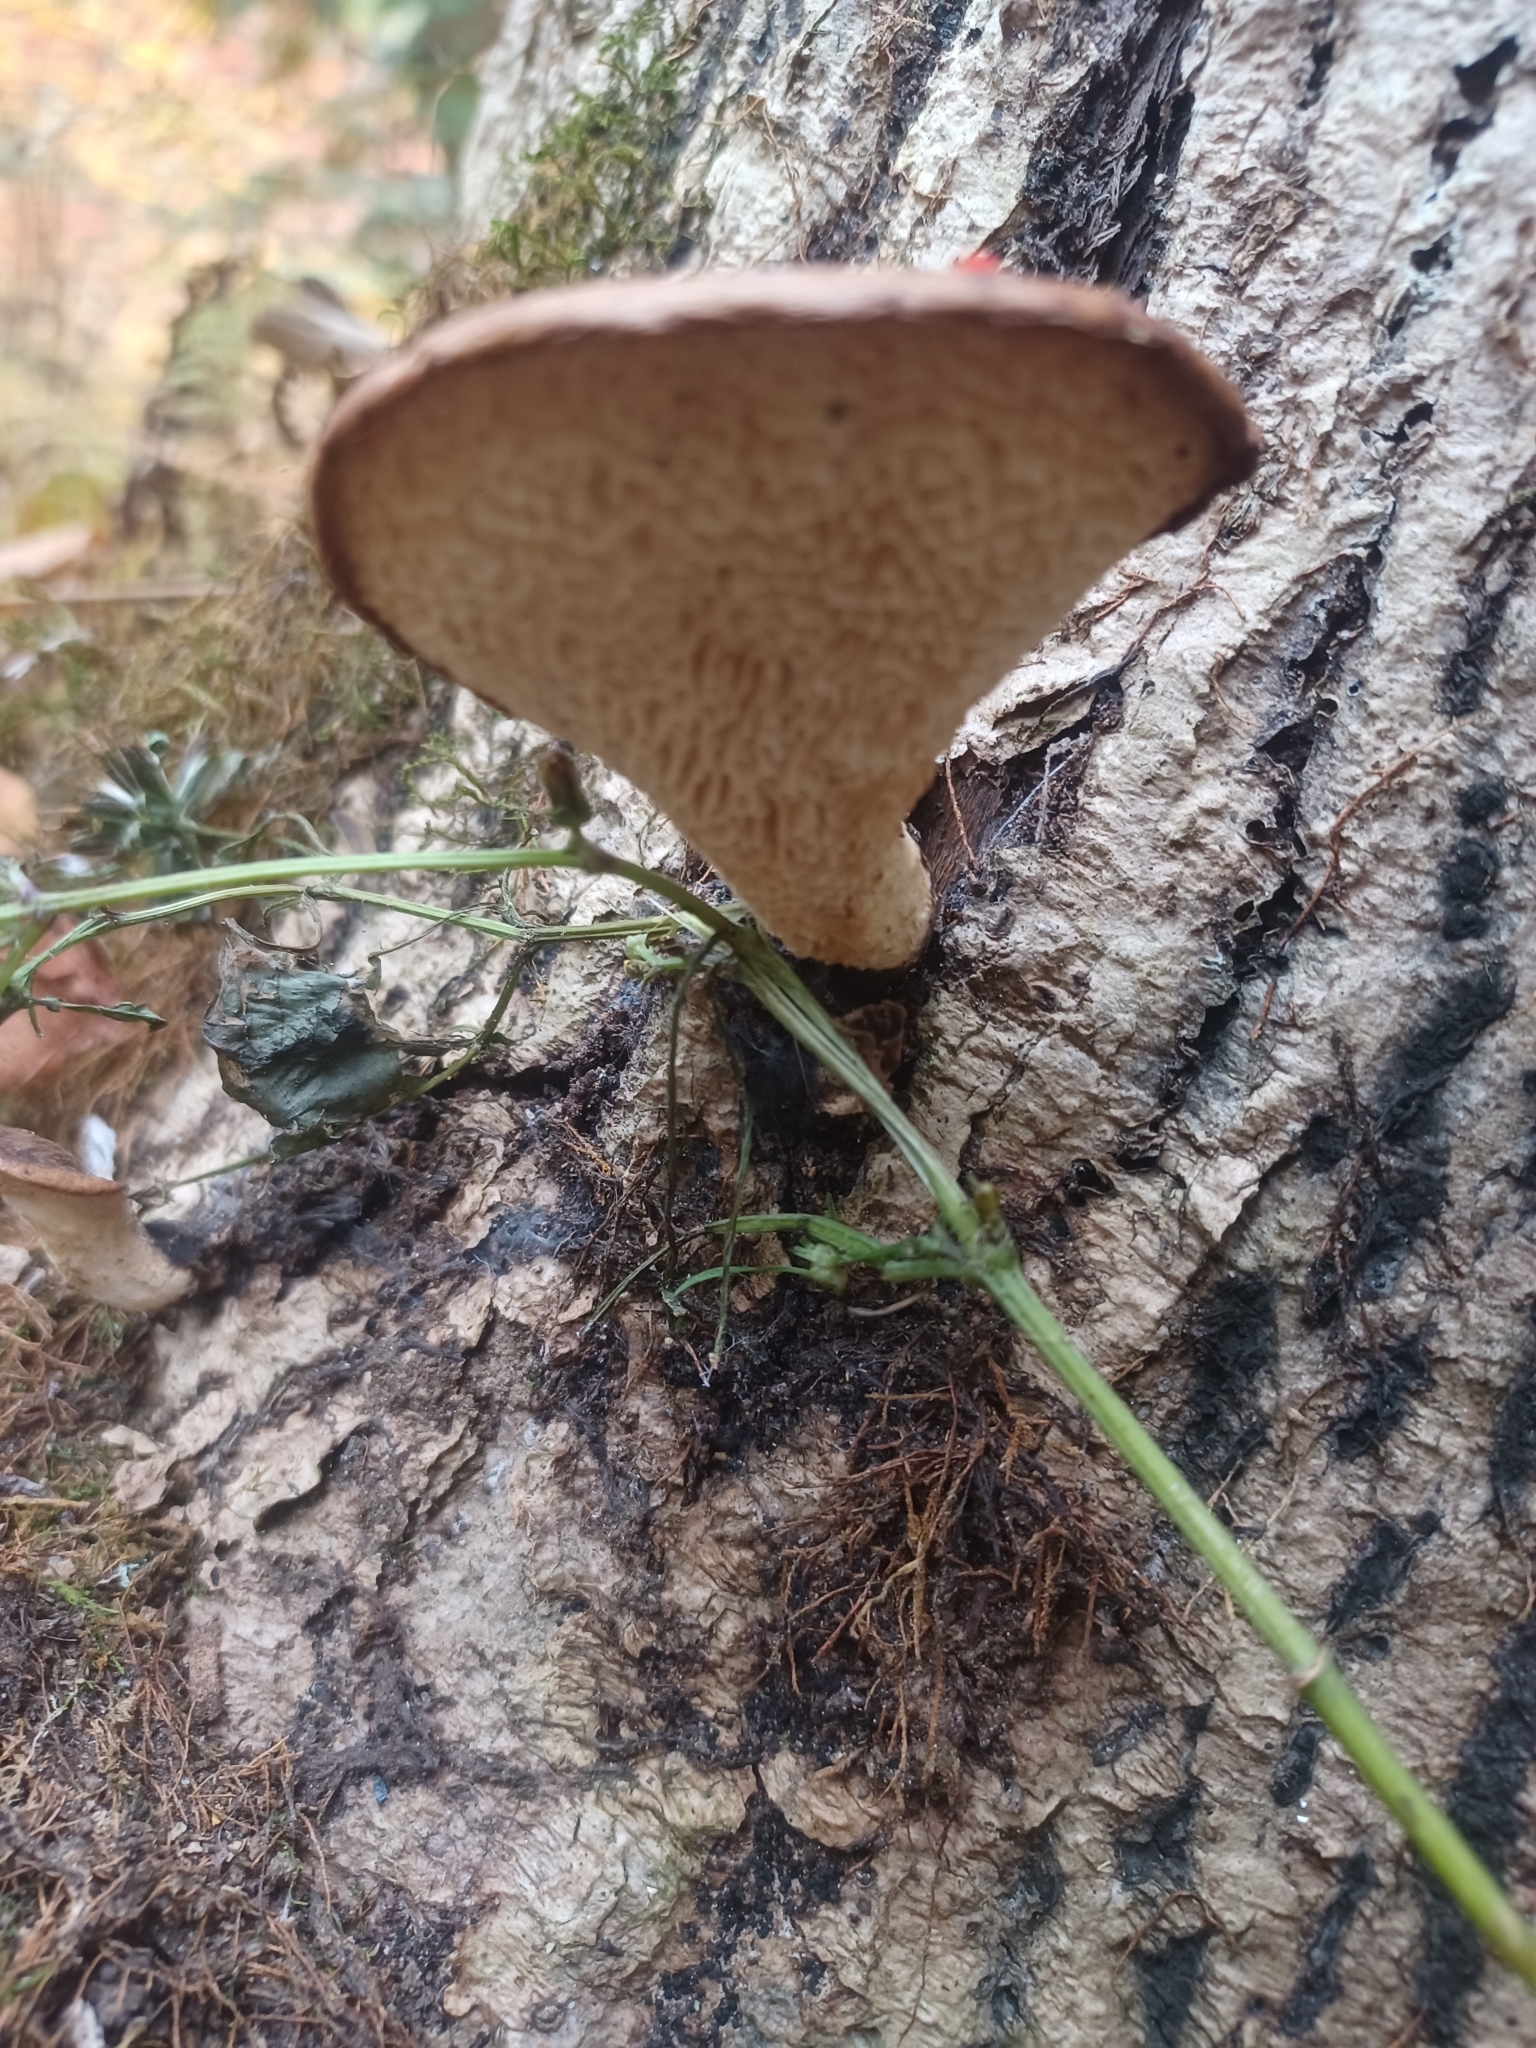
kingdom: Fungi
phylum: Basidiomycota
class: Agaricomycetes
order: Polyporales
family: Polyporaceae
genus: Cerioporus
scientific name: Cerioporus squamosus
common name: Dryad's saddle
